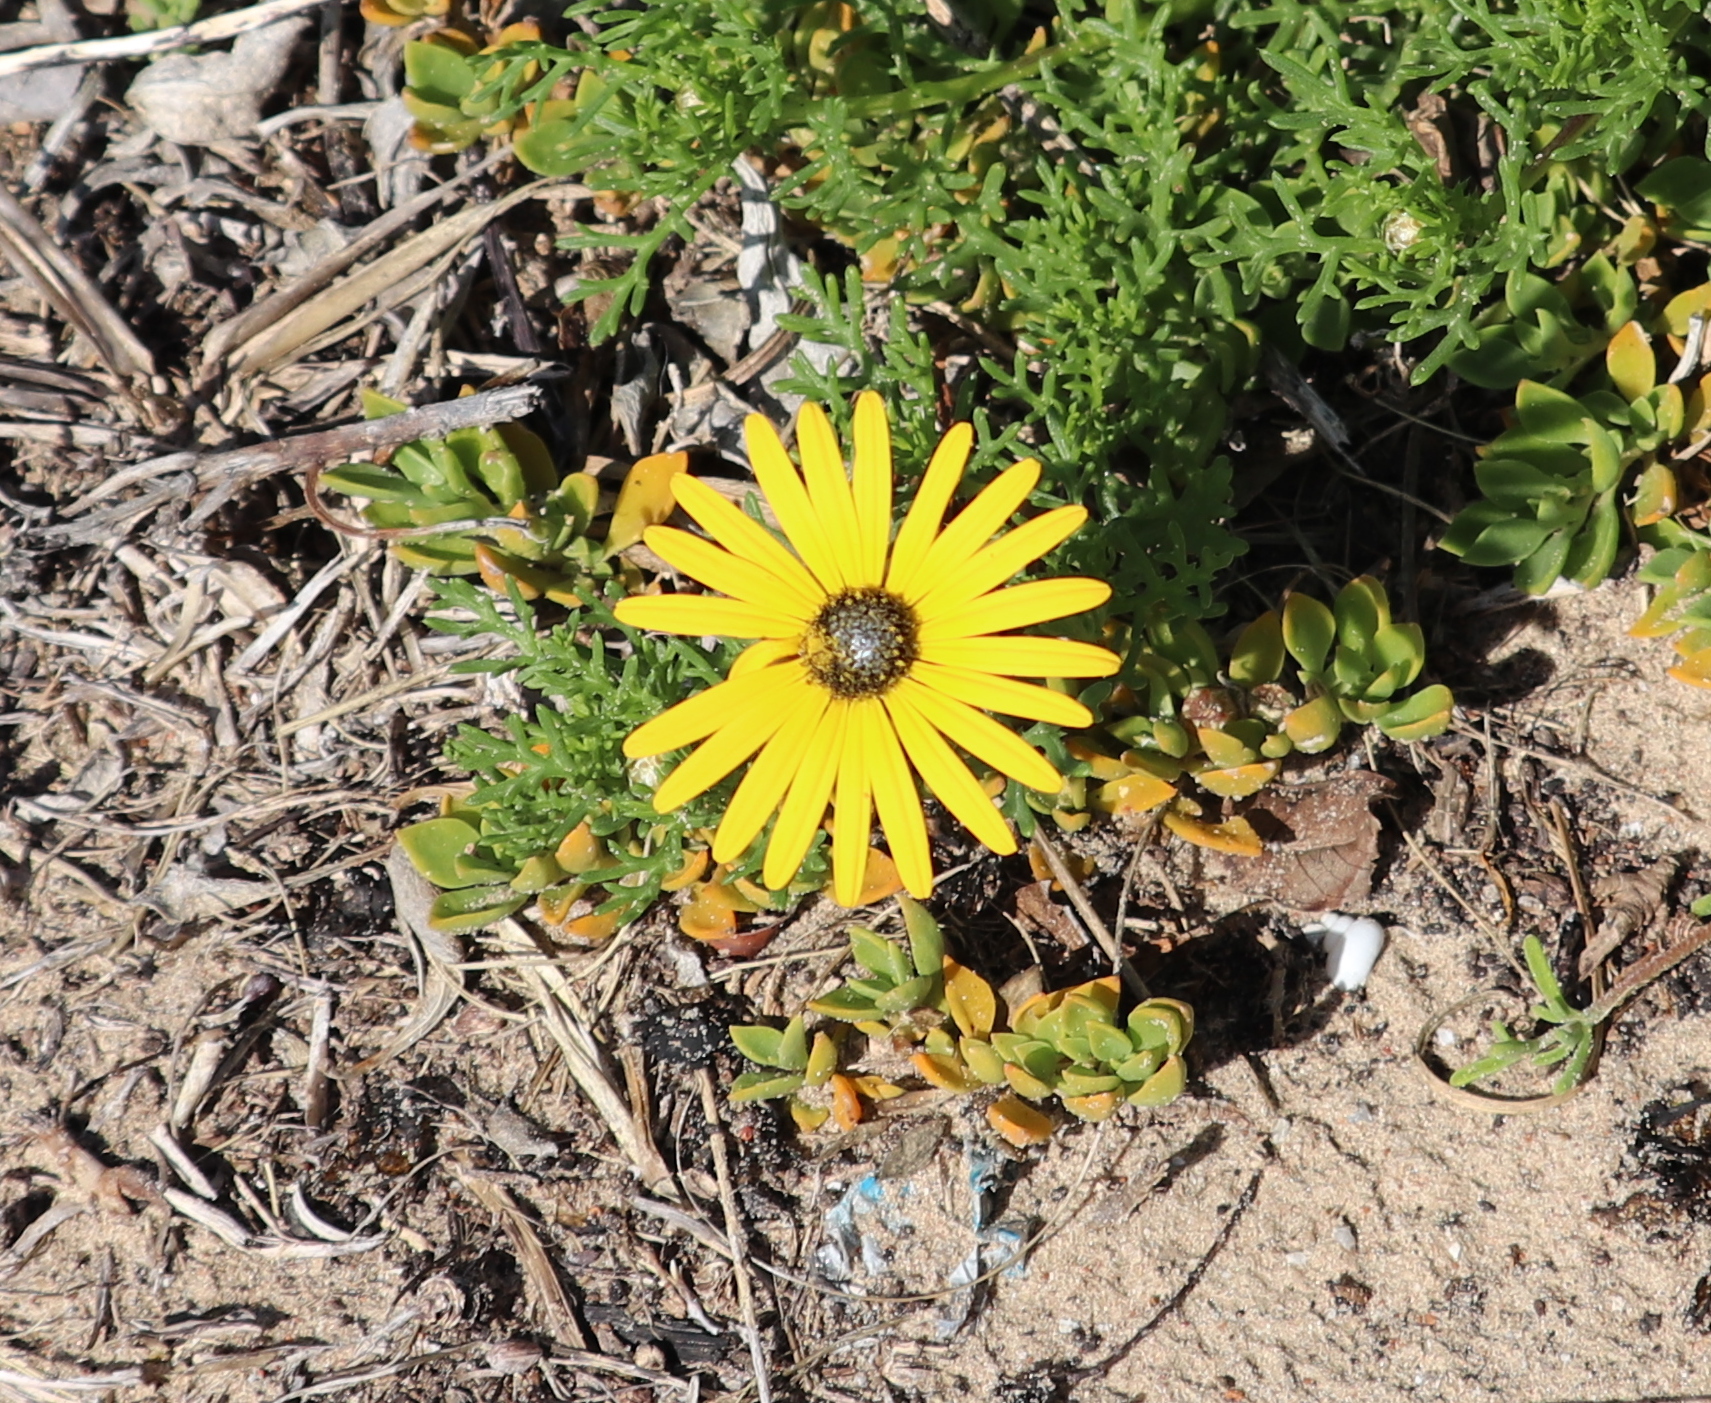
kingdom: Plantae
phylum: Tracheophyta
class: Magnoliopsida
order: Asterales
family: Asteraceae
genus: Ursinia
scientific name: Ursinia anthemoides
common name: Ursinia
